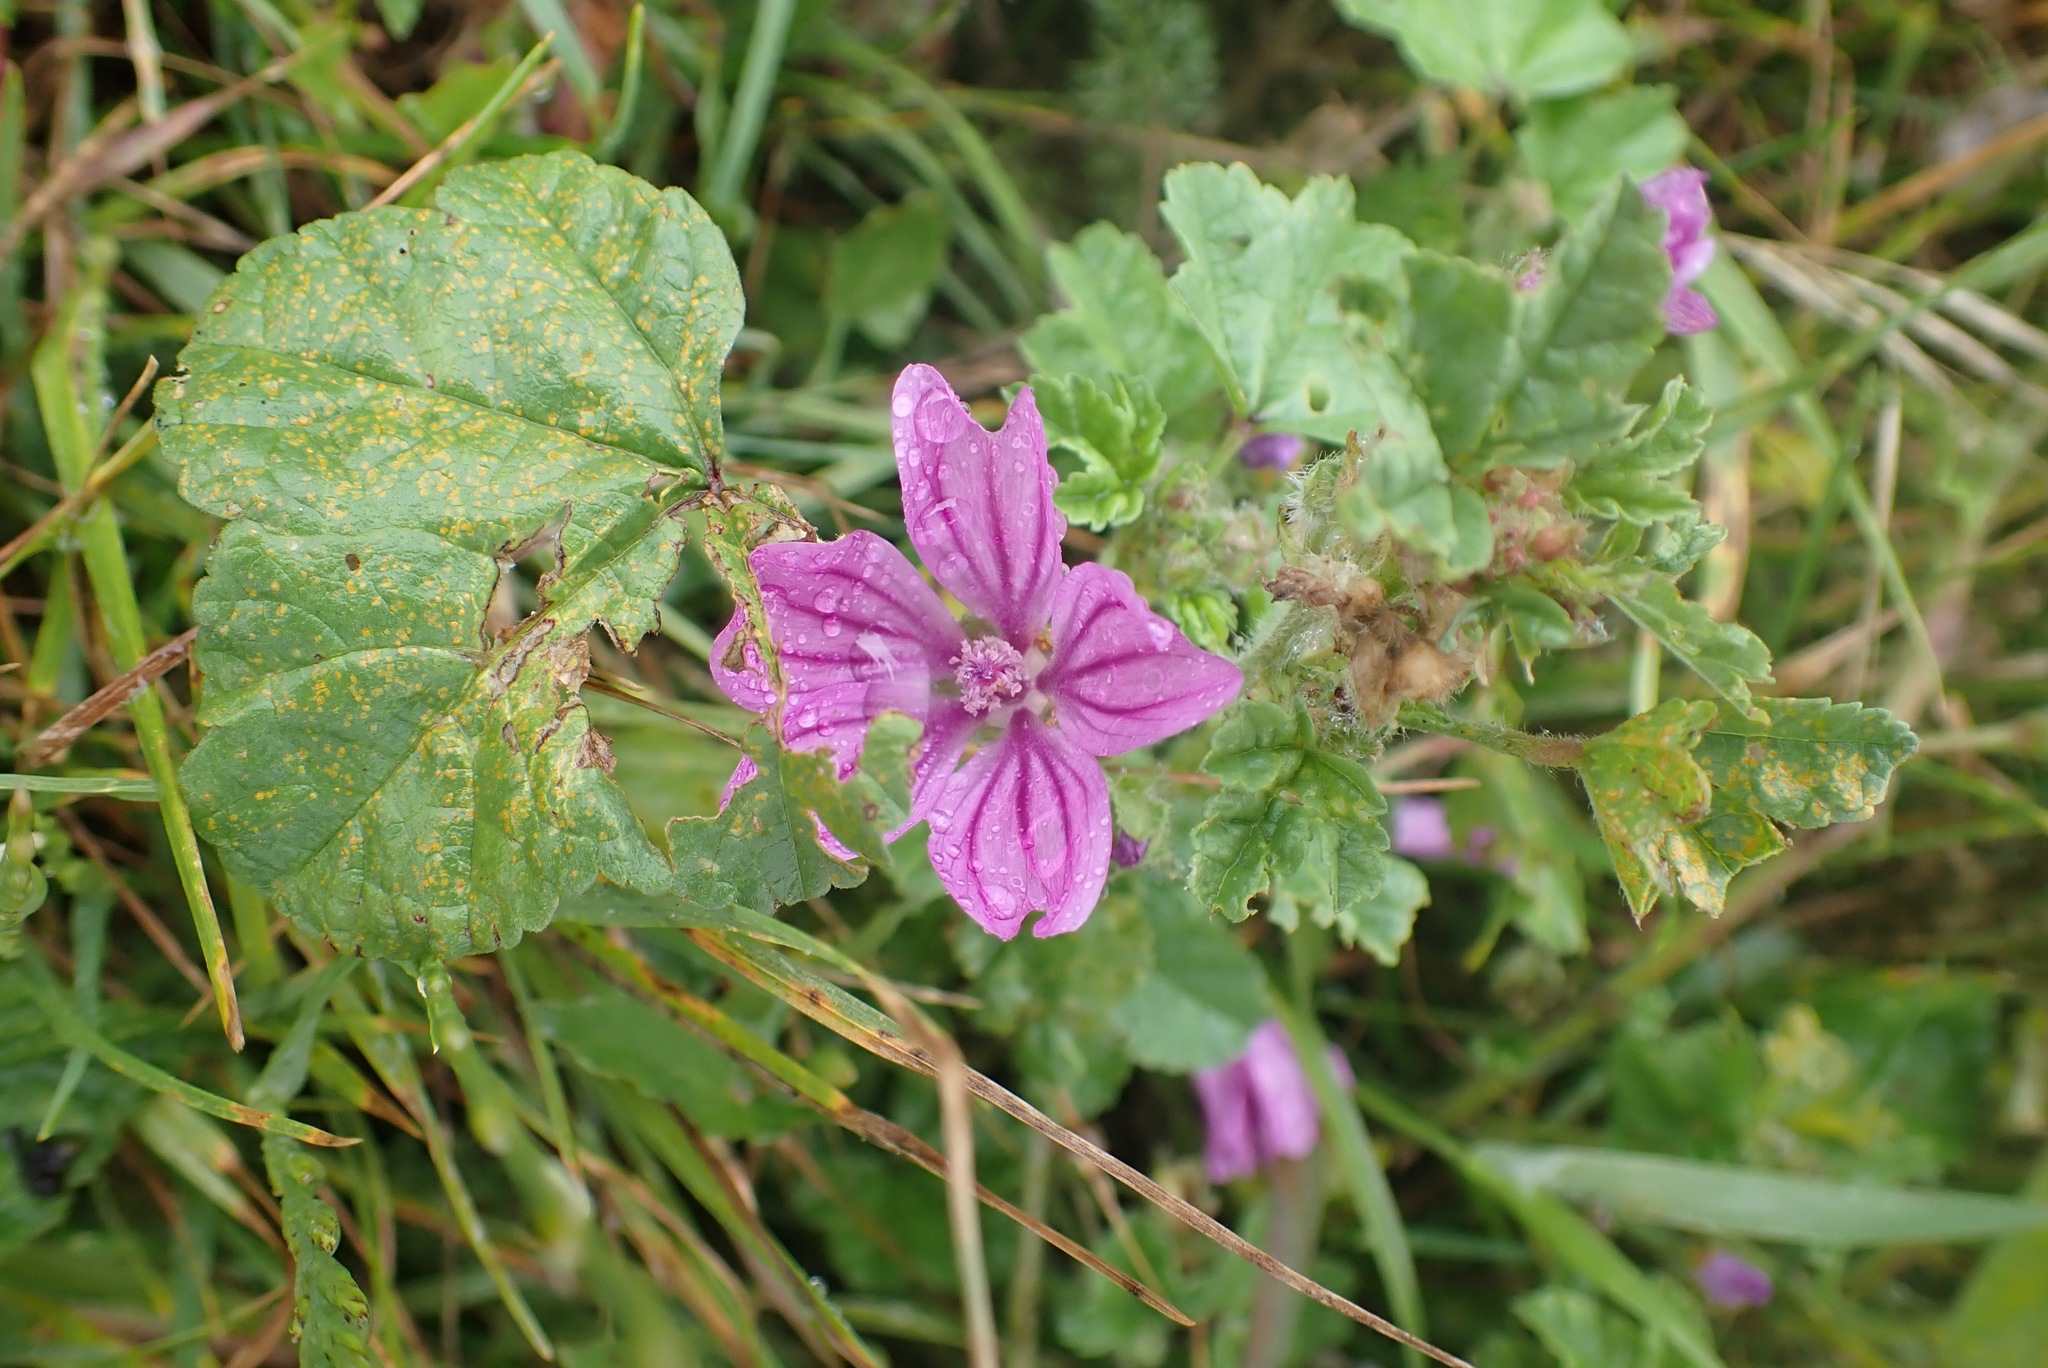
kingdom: Plantae
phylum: Tracheophyta
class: Magnoliopsida
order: Malvales
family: Malvaceae
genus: Malva
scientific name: Malva sylvestris
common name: Common mallow
